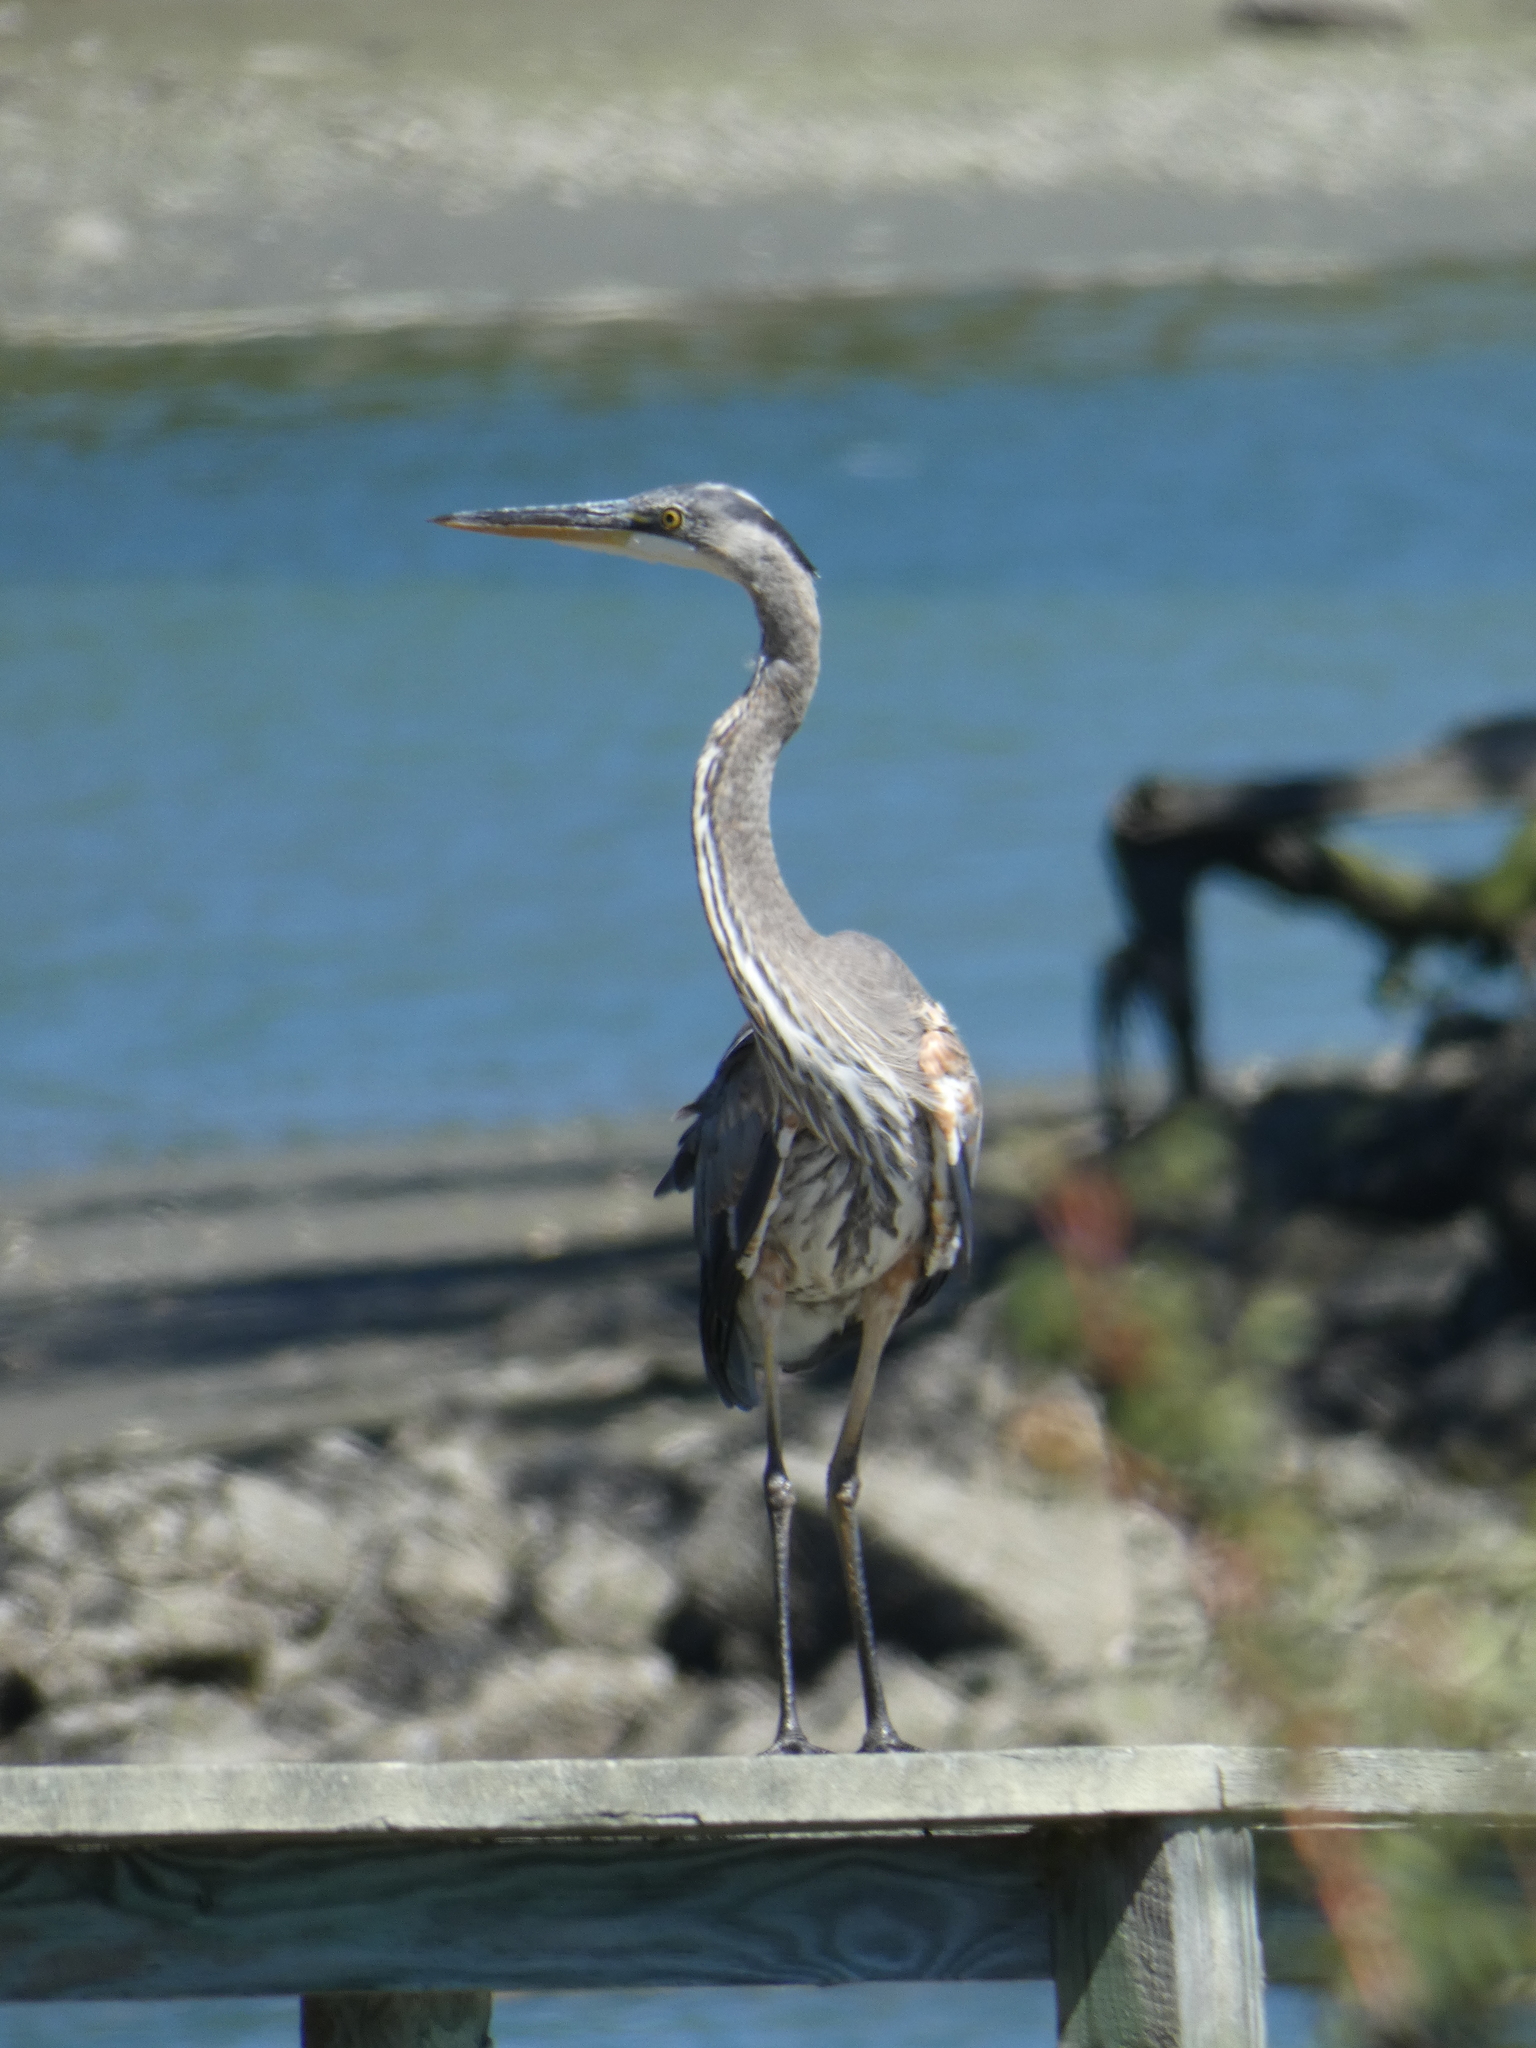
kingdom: Animalia
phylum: Chordata
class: Aves
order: Pelecaniformes
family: Ardeidae
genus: Ardea
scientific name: Ardea herodias
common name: Great blue heron
